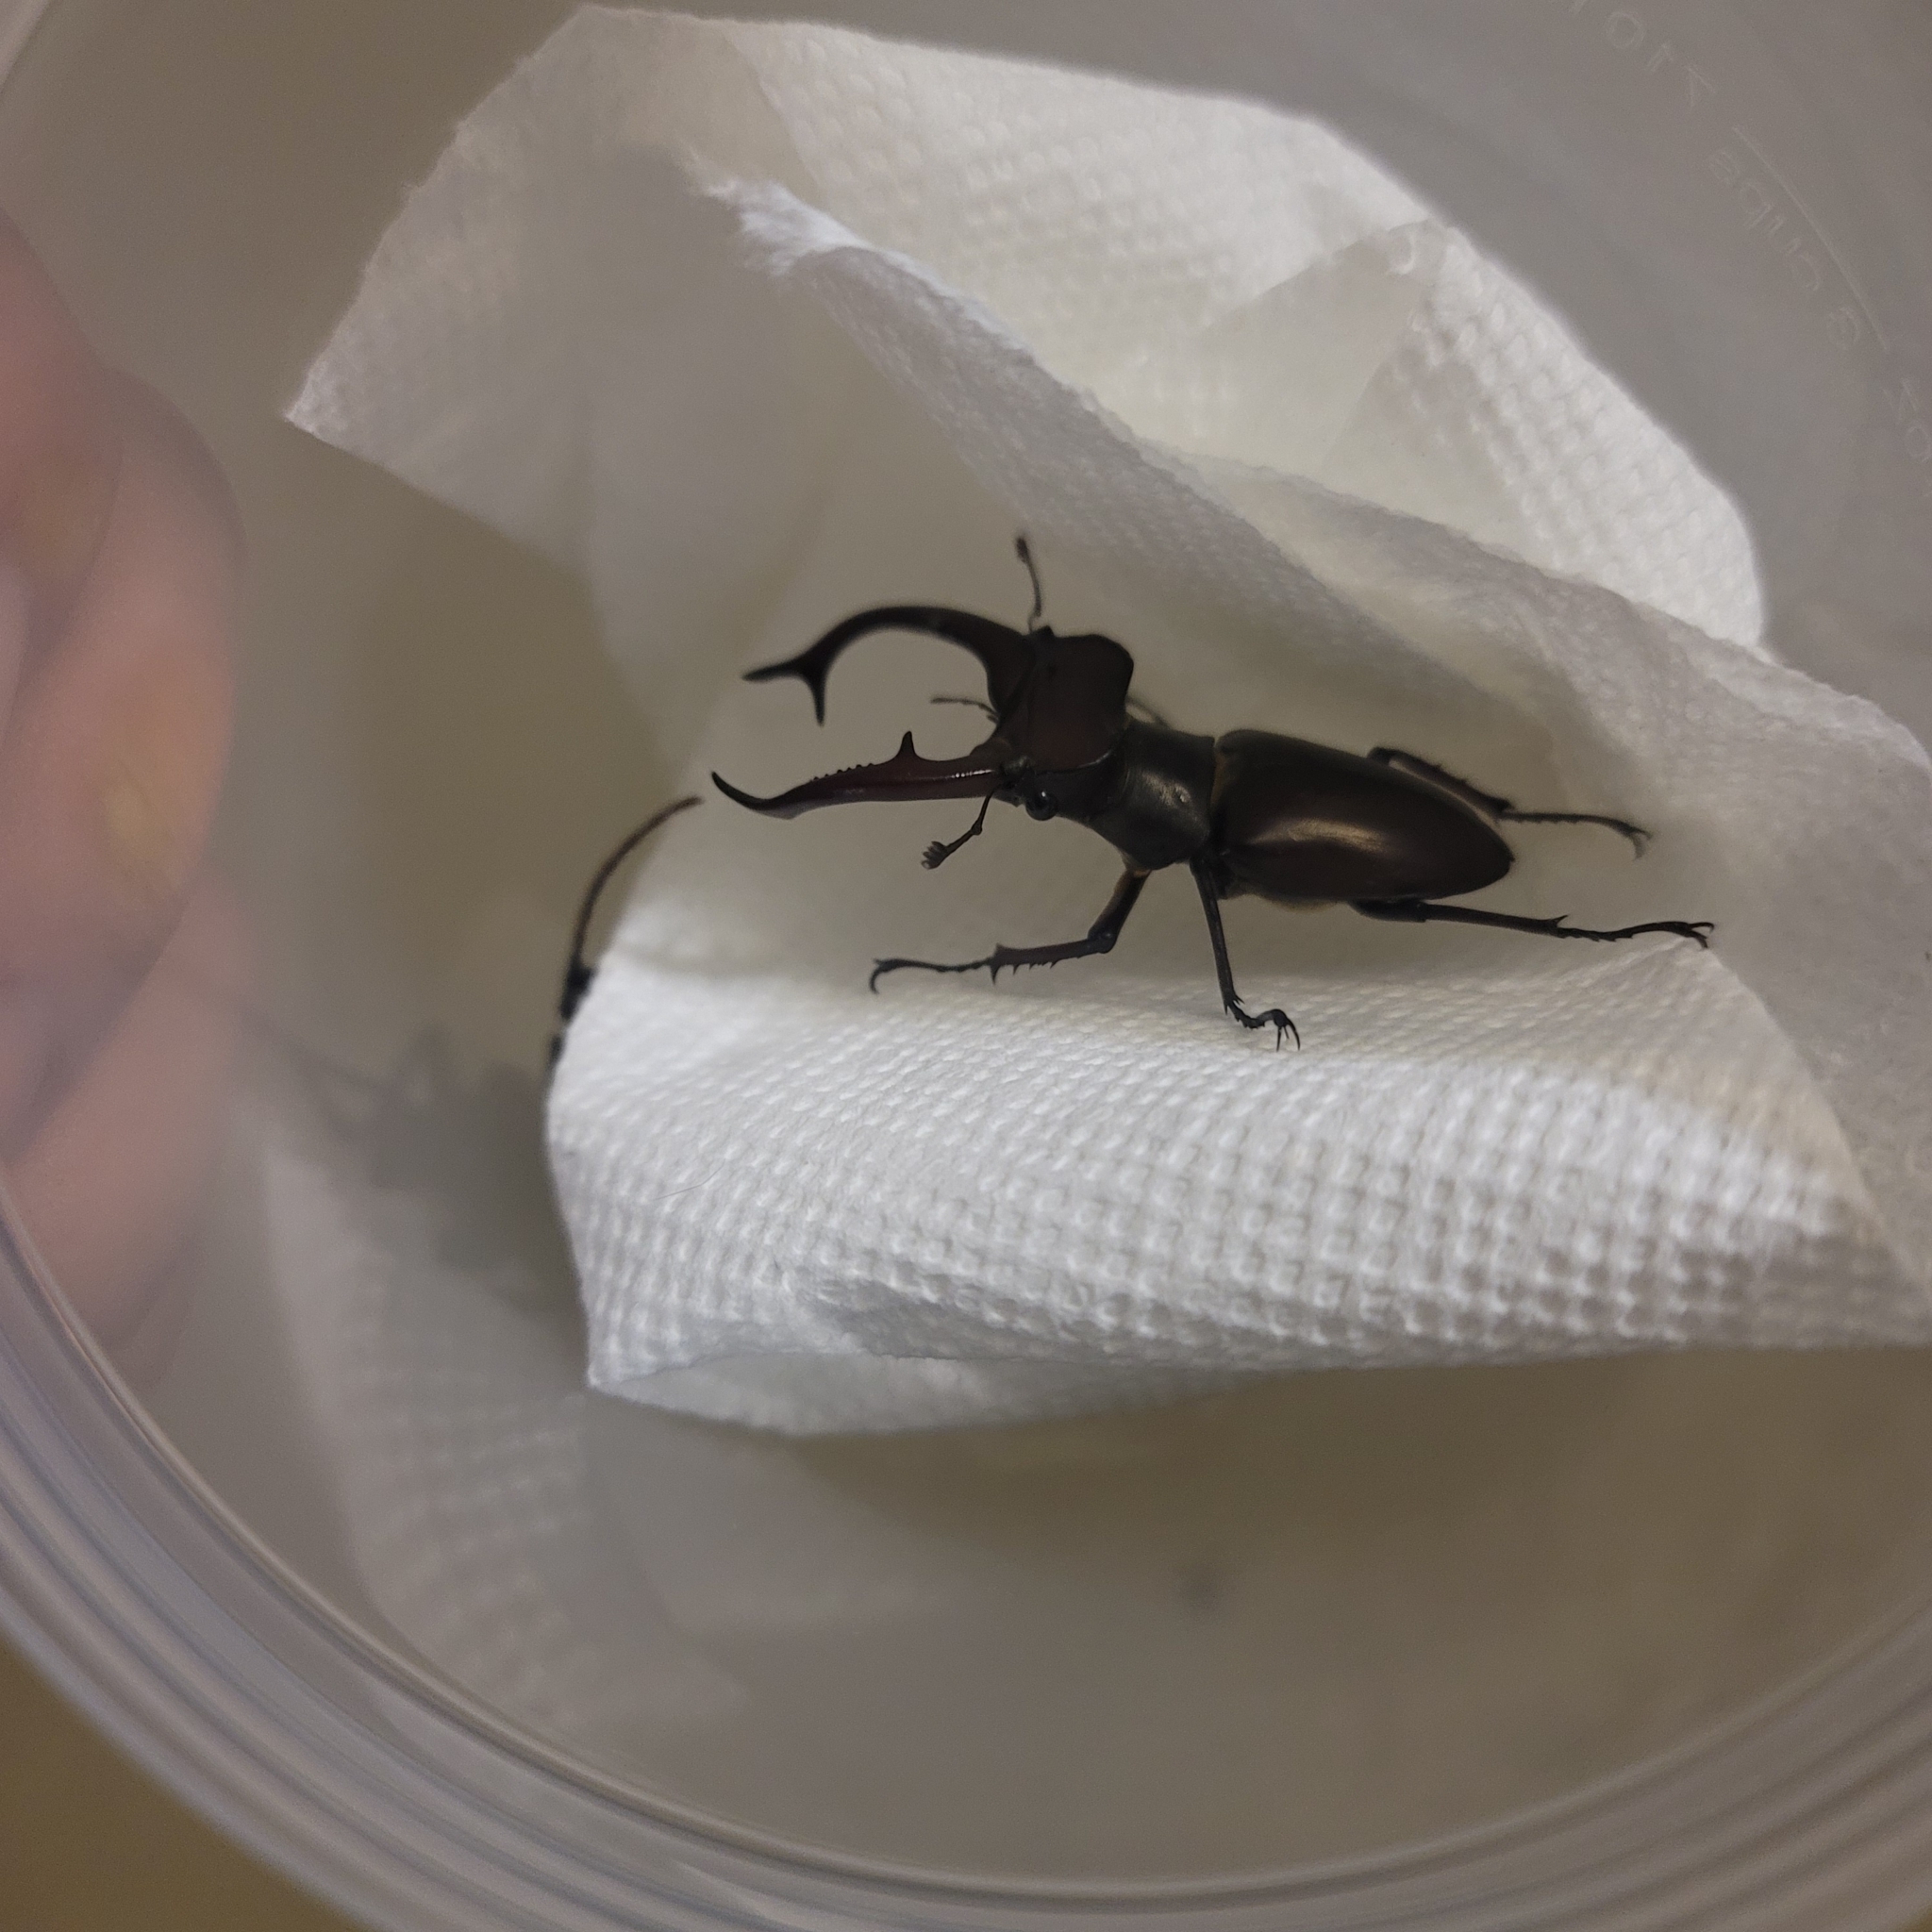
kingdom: Animalia
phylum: Arthropoda
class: Insecta
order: Coleoptera
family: Lucanidae
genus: Lucanus
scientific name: Lucanus elaphus
